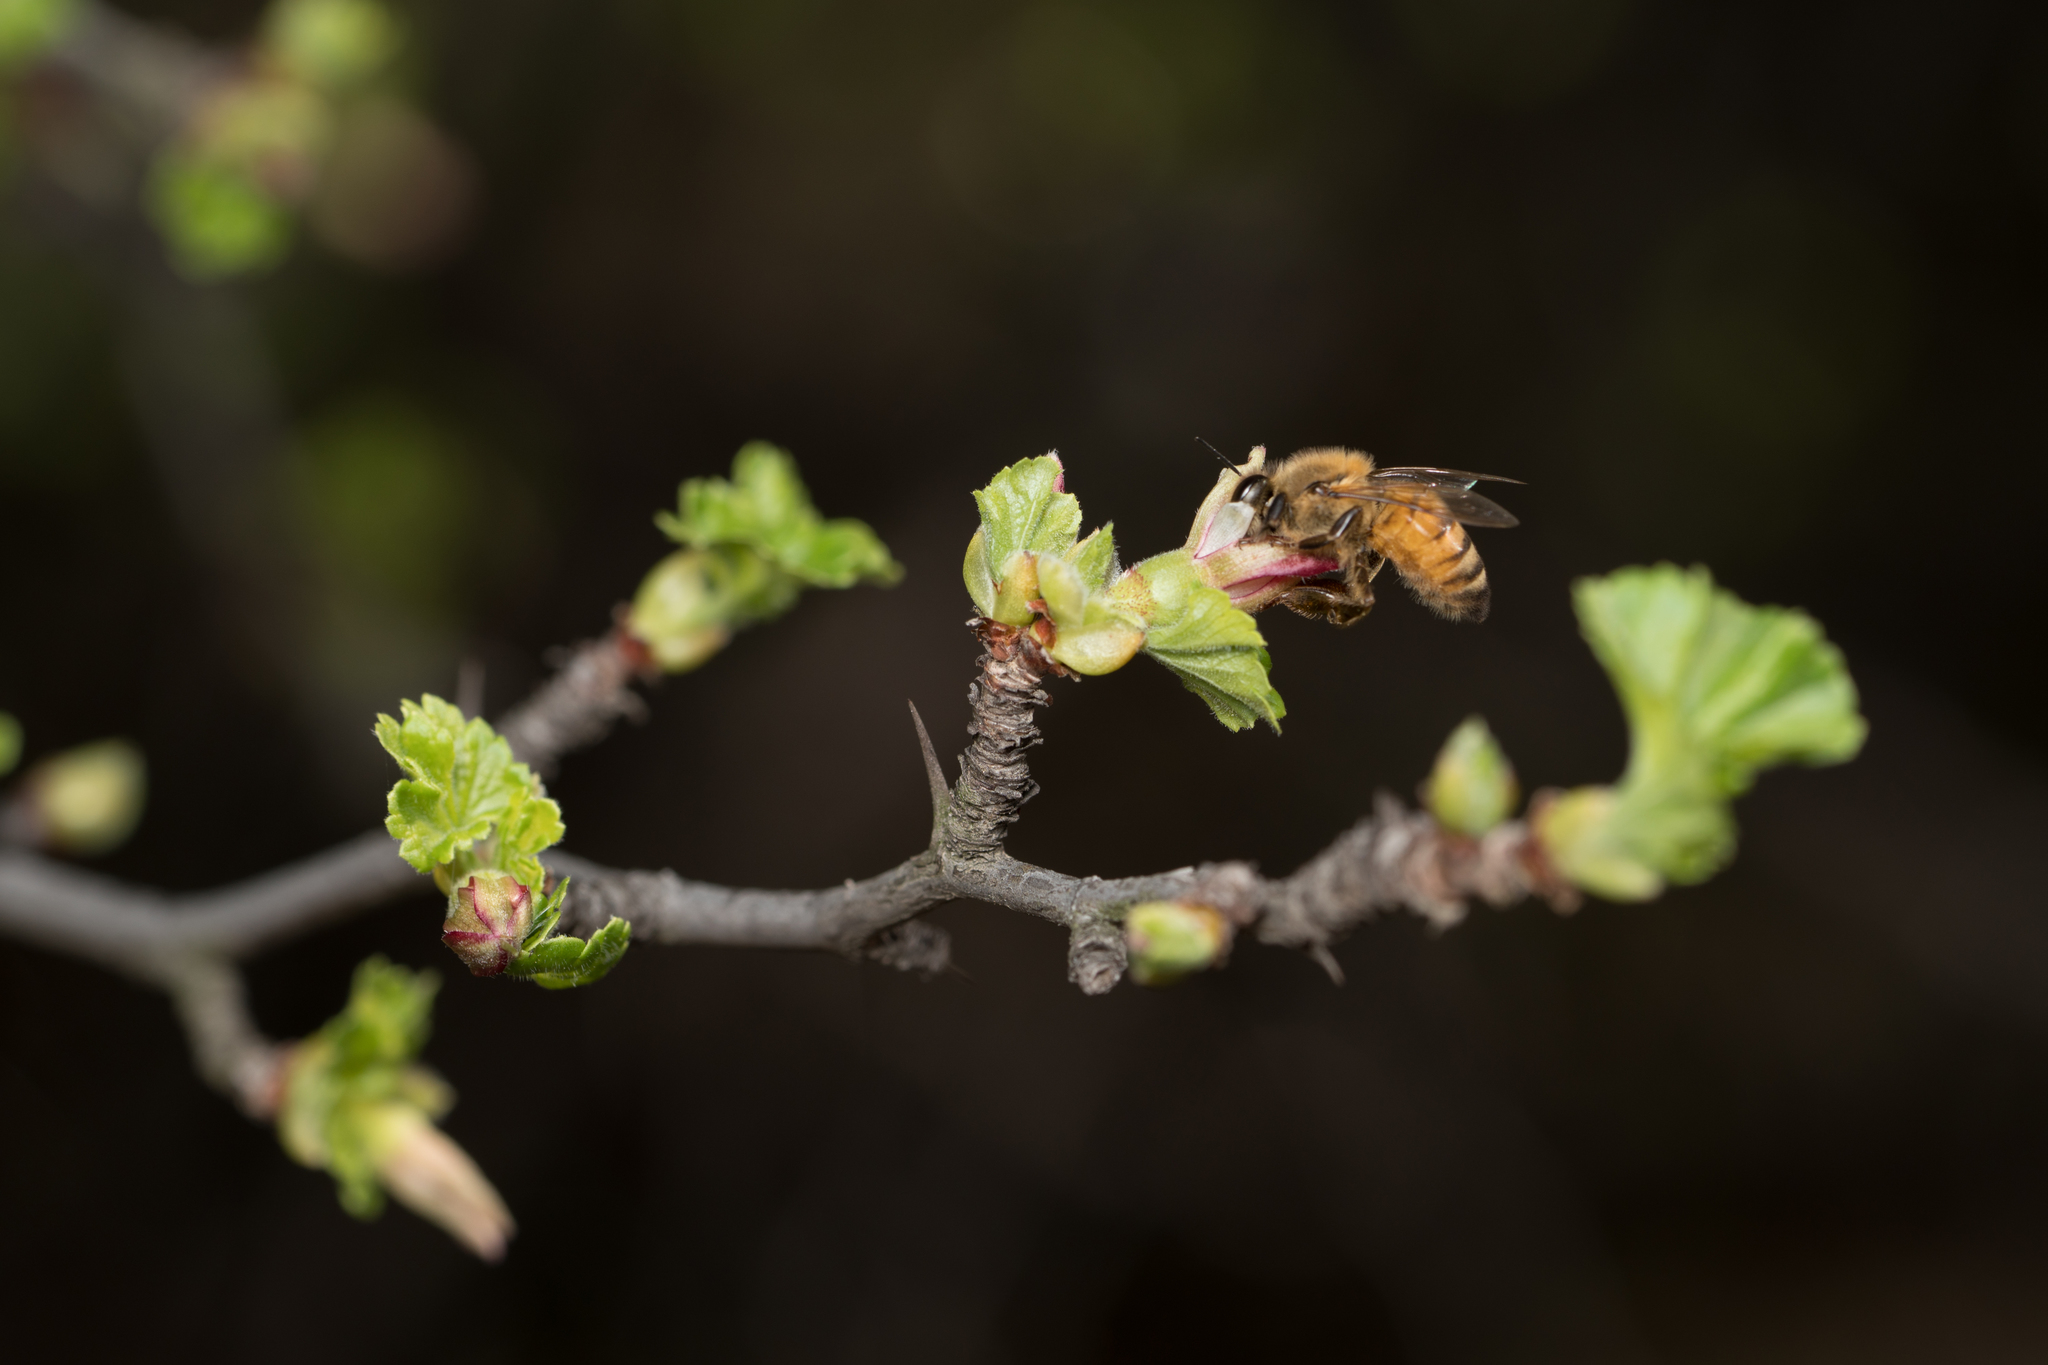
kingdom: Animalia
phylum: Arthropoda
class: Insecta
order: Hymenoptera
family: Apidae
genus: Apis
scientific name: Apis mellifera
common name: Honey bee
